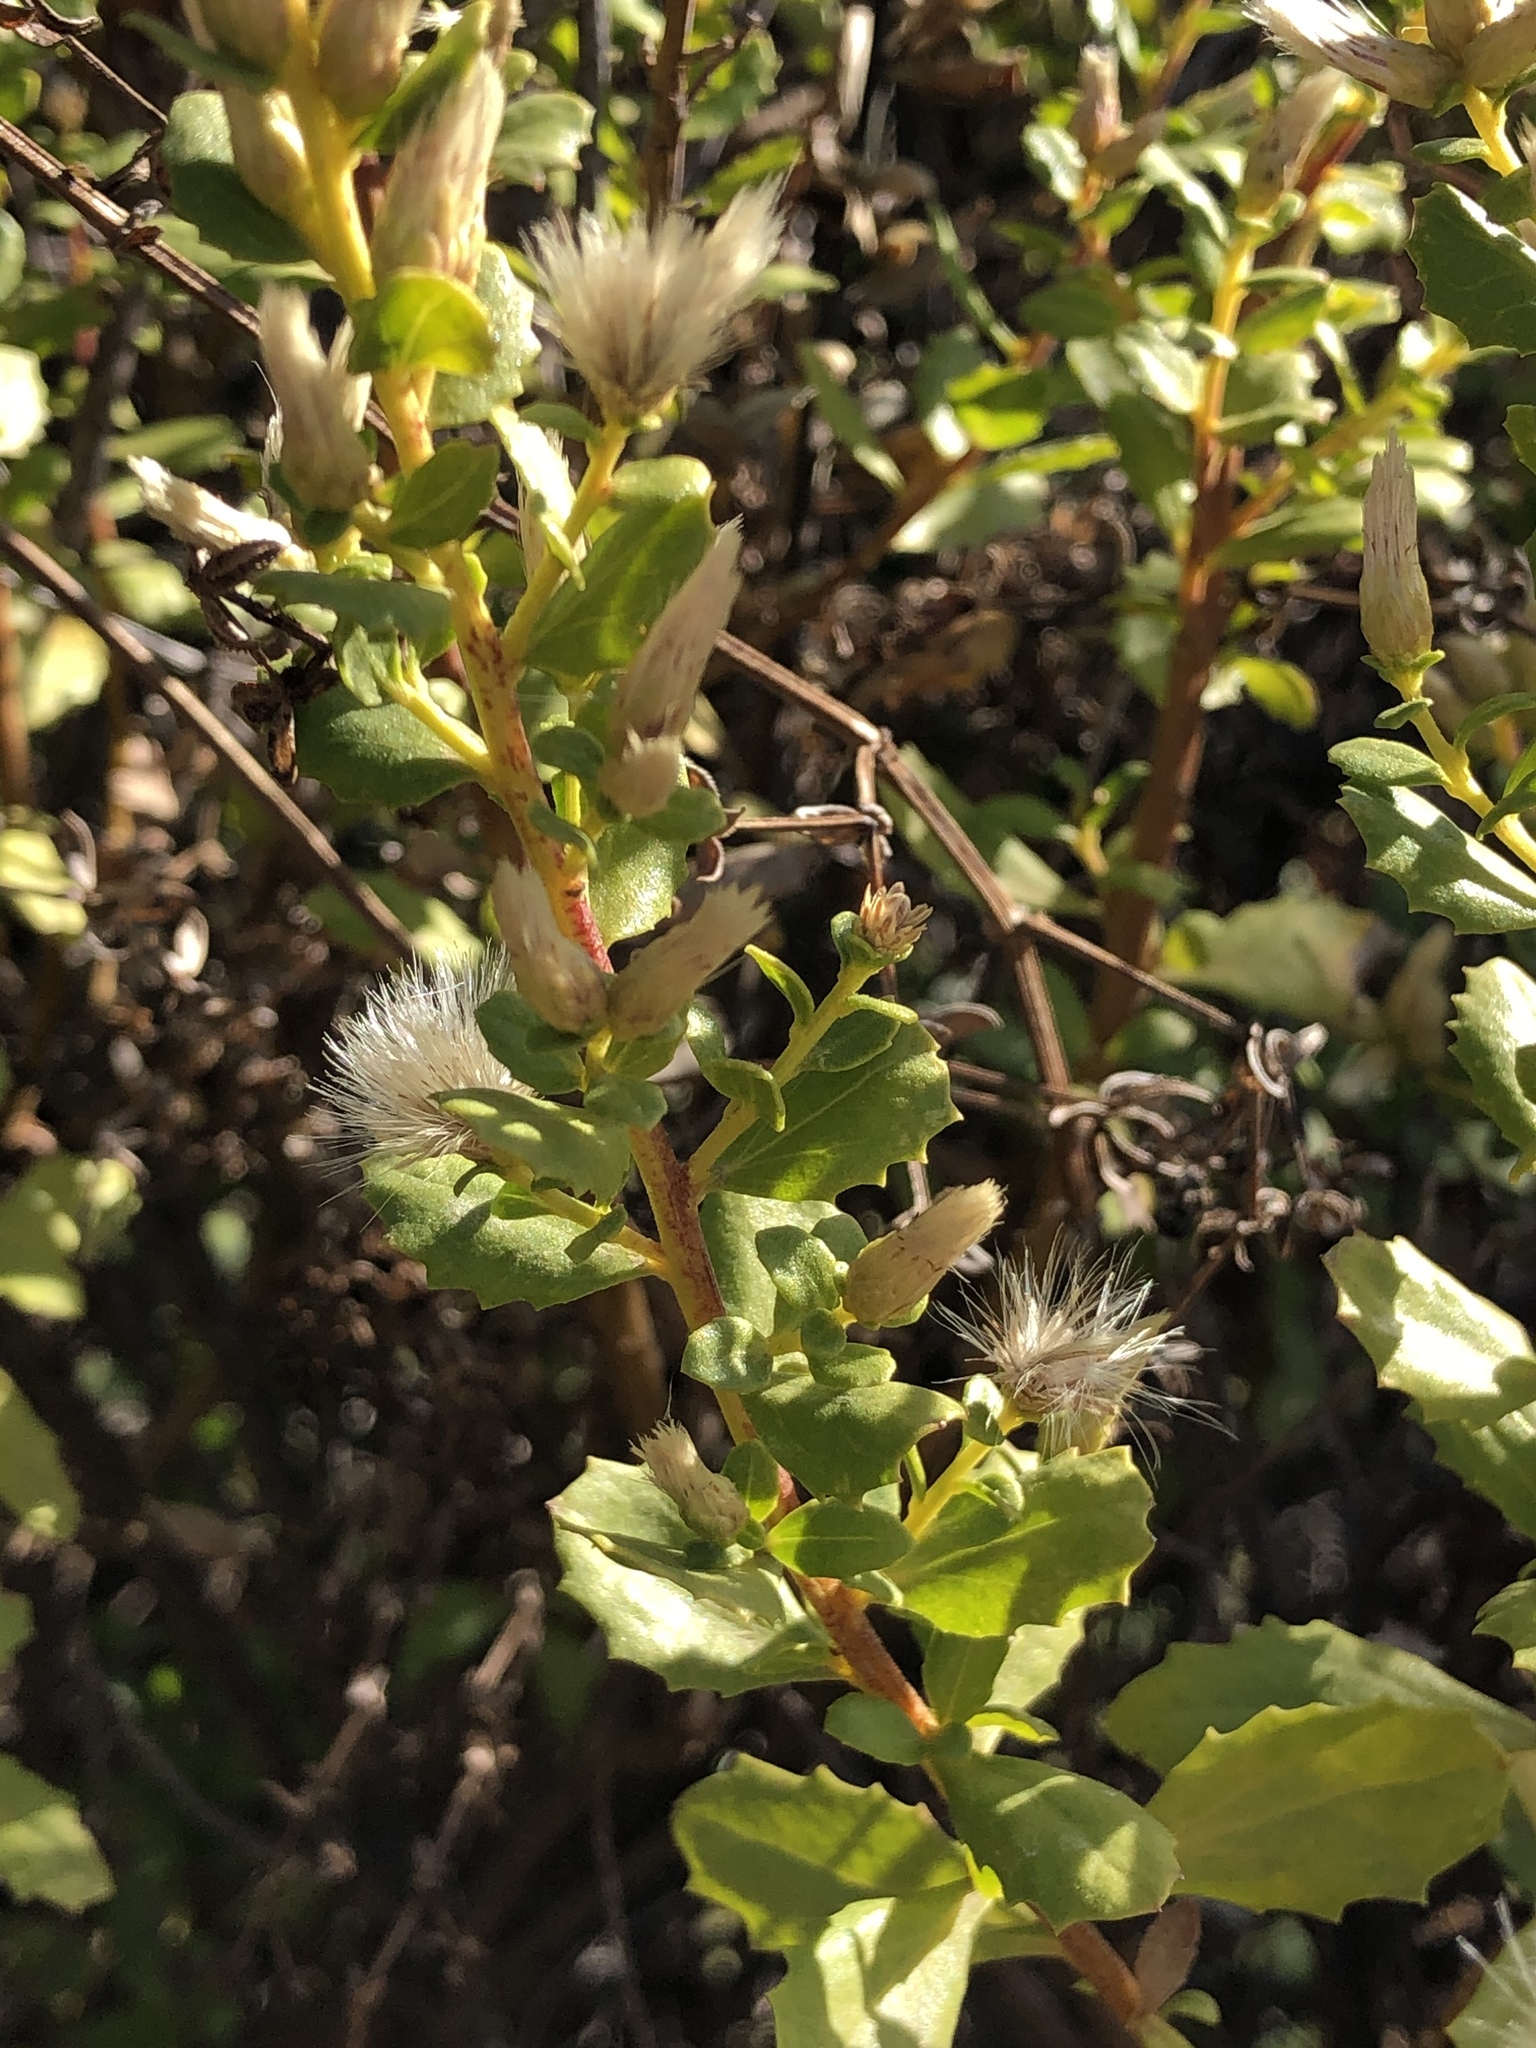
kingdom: Plantae
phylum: Tracheophyta
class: Magnoliopsida
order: Asterales
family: Asteraceae
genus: Baccharis
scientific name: Baccharis pilularis
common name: Coyotebrush
